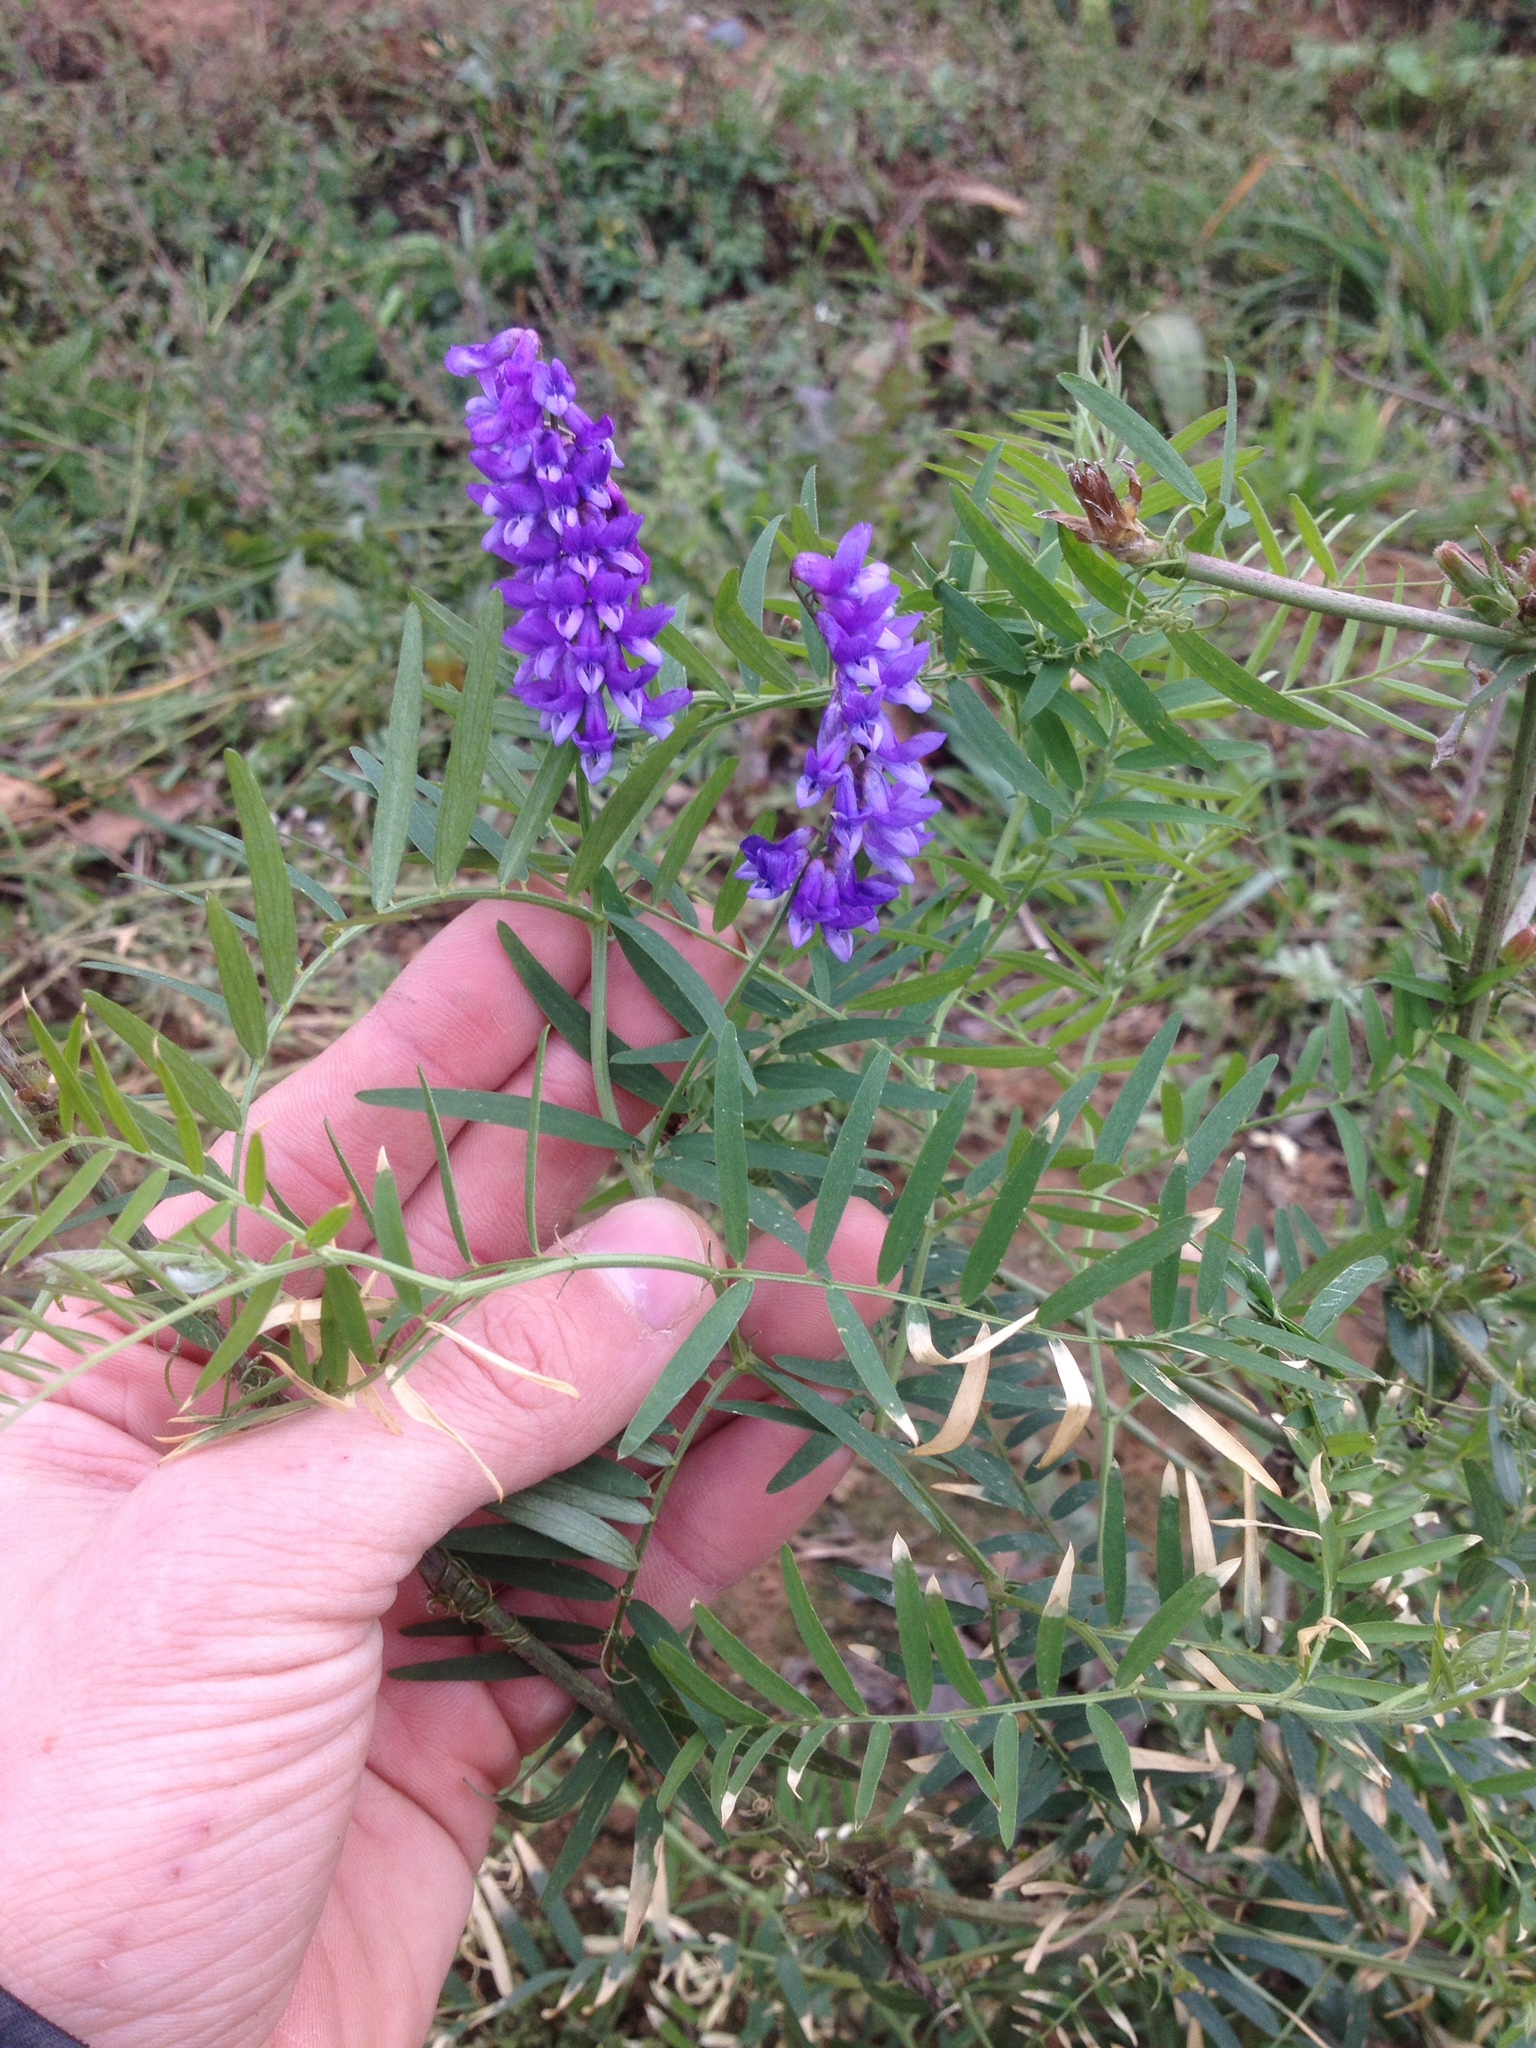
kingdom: Plantae
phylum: Tracheophyta
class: Magnoliopsida
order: Fabales
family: Fabaceae
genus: Vicia
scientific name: Vicia cracca
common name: Bird vetch
